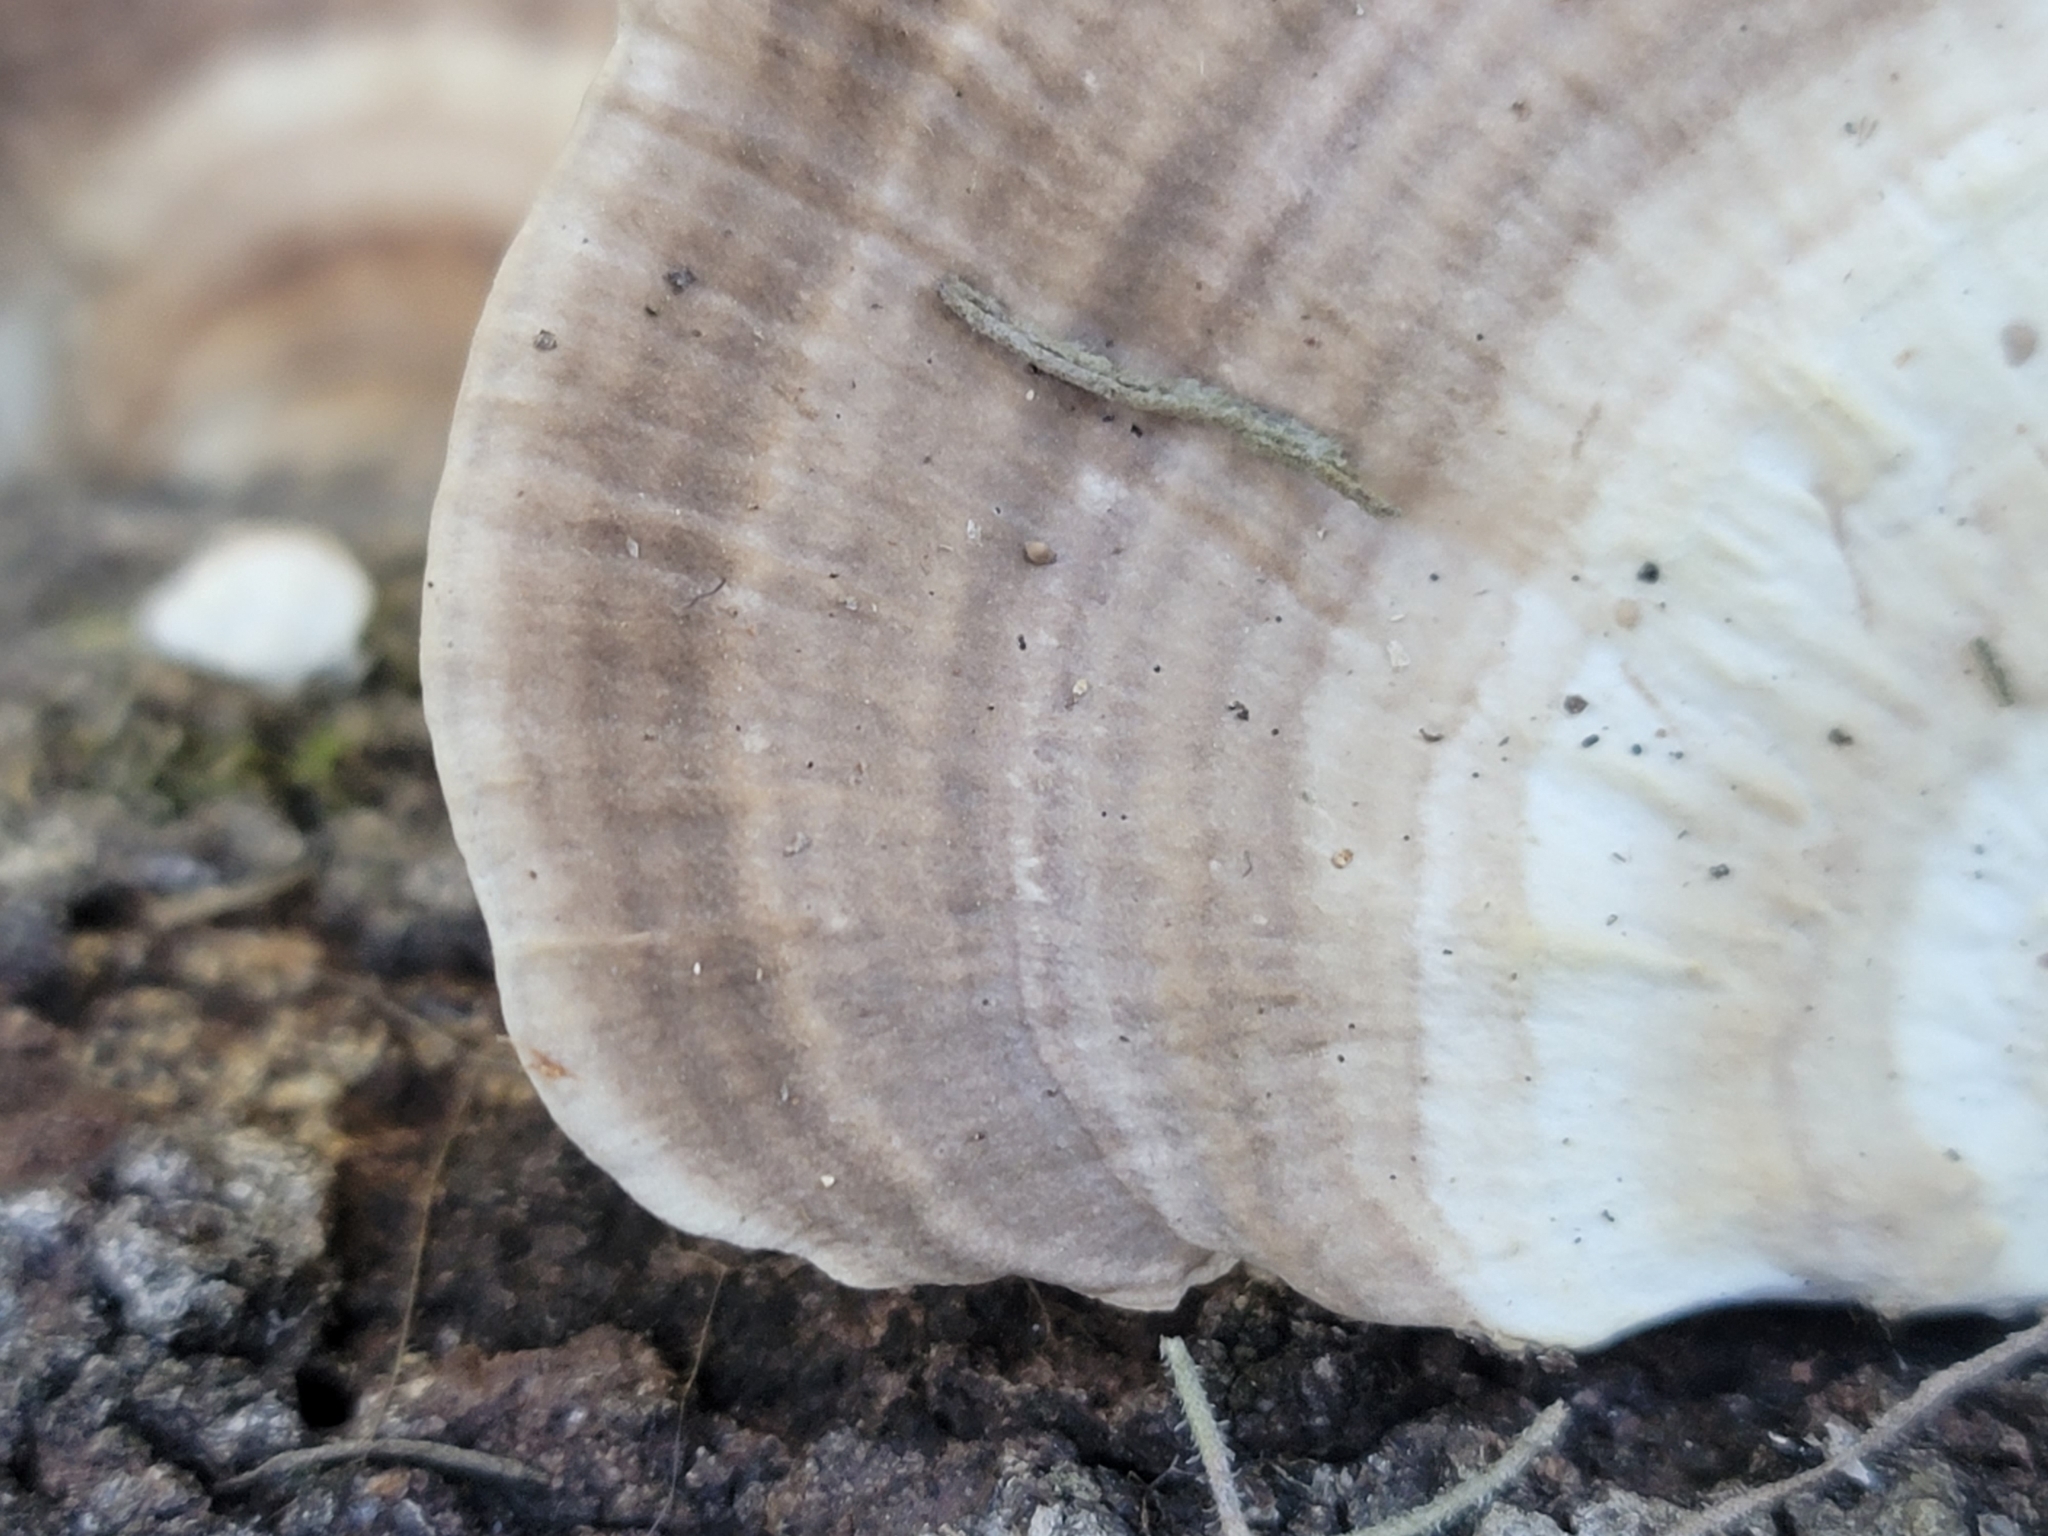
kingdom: Fungi
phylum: Basidiomycota
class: Agaricomycetes
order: Polyporales
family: Polyporaceae
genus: Trametes
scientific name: Trametes lactinea
